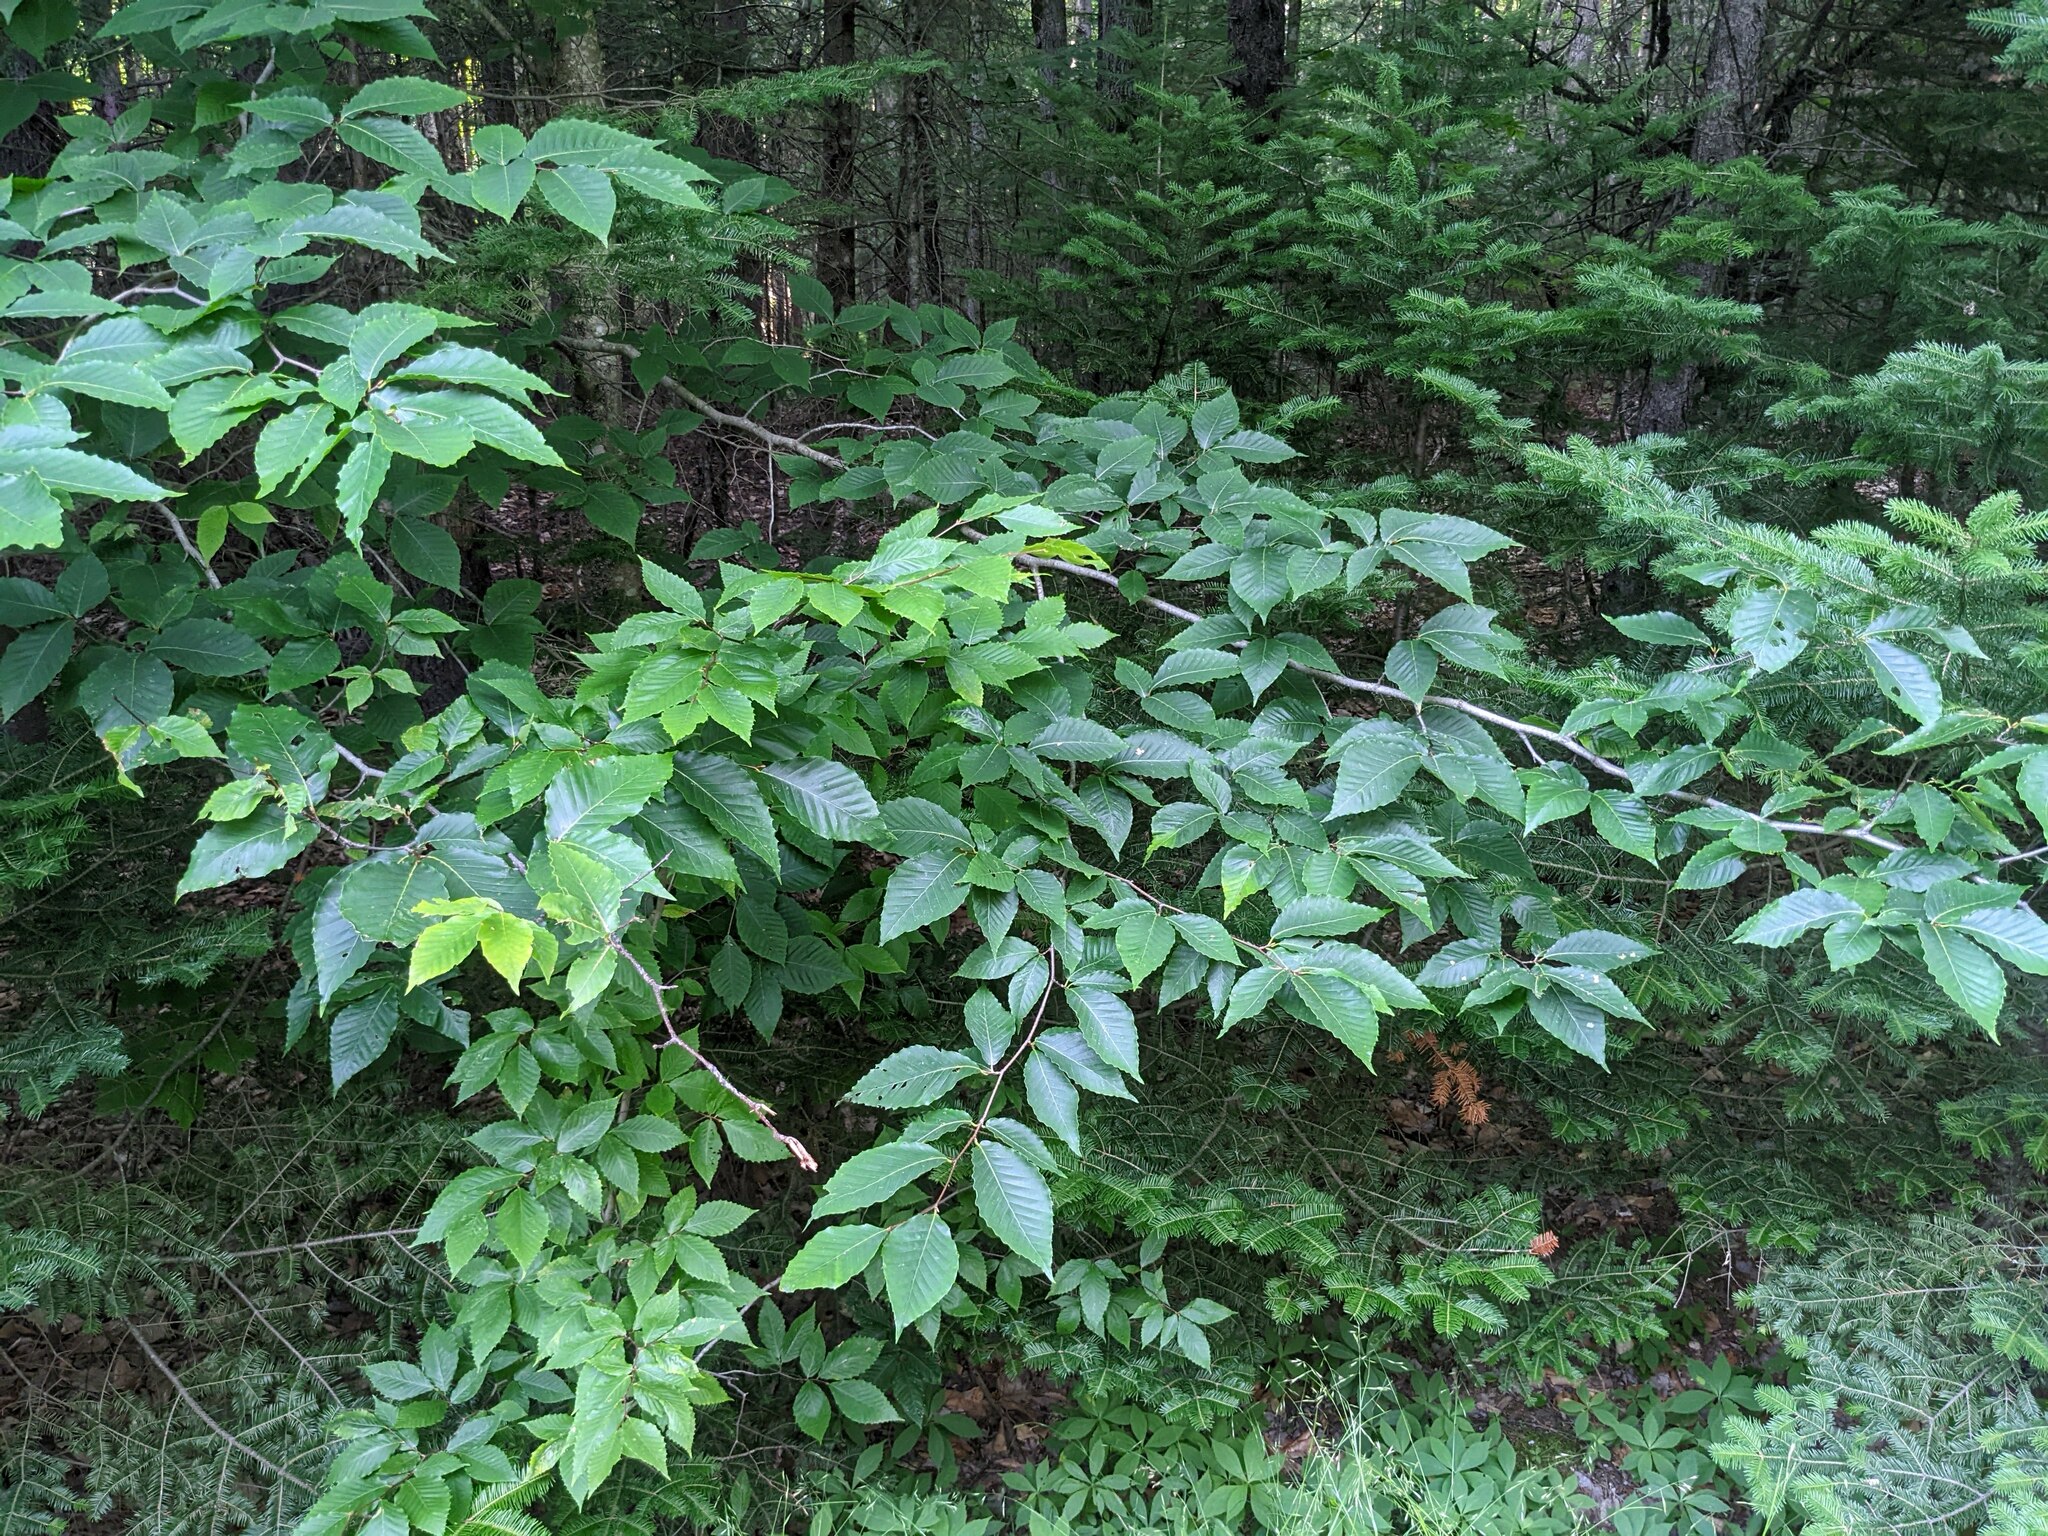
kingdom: Plantae
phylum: Tracheophyta
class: Magnoliopsida
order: Fagales
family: Fagaceae
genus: Fagus
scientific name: Fagus grandifolia
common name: American beech
